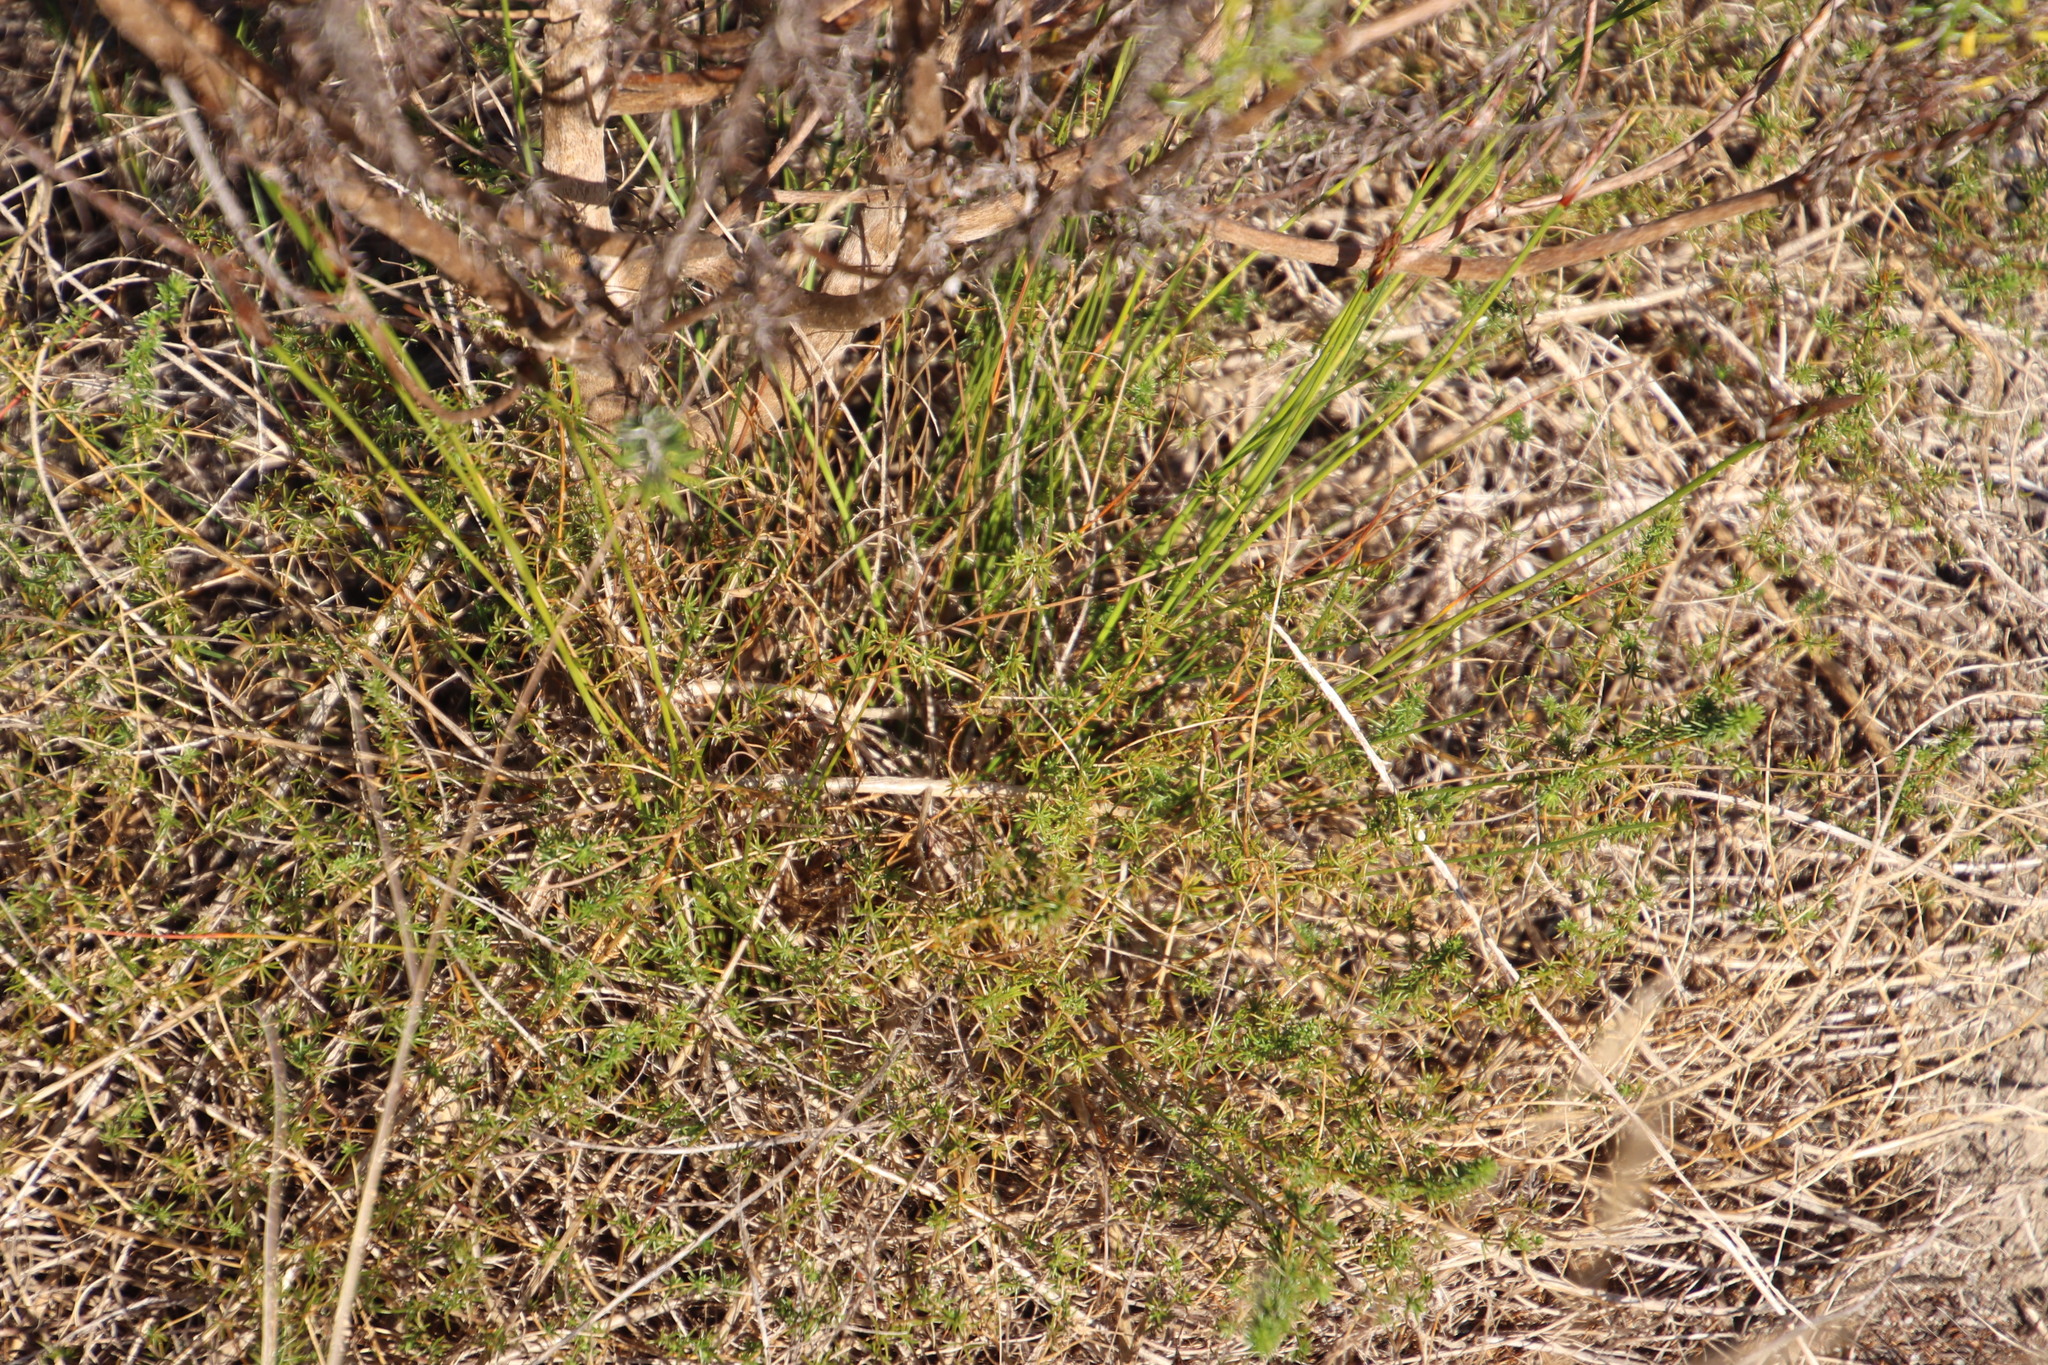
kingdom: Plantae
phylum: Tracheophyta
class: Liliopsida
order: Poales
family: Cyperaceae
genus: Ficinia
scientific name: Ficinia deusta
